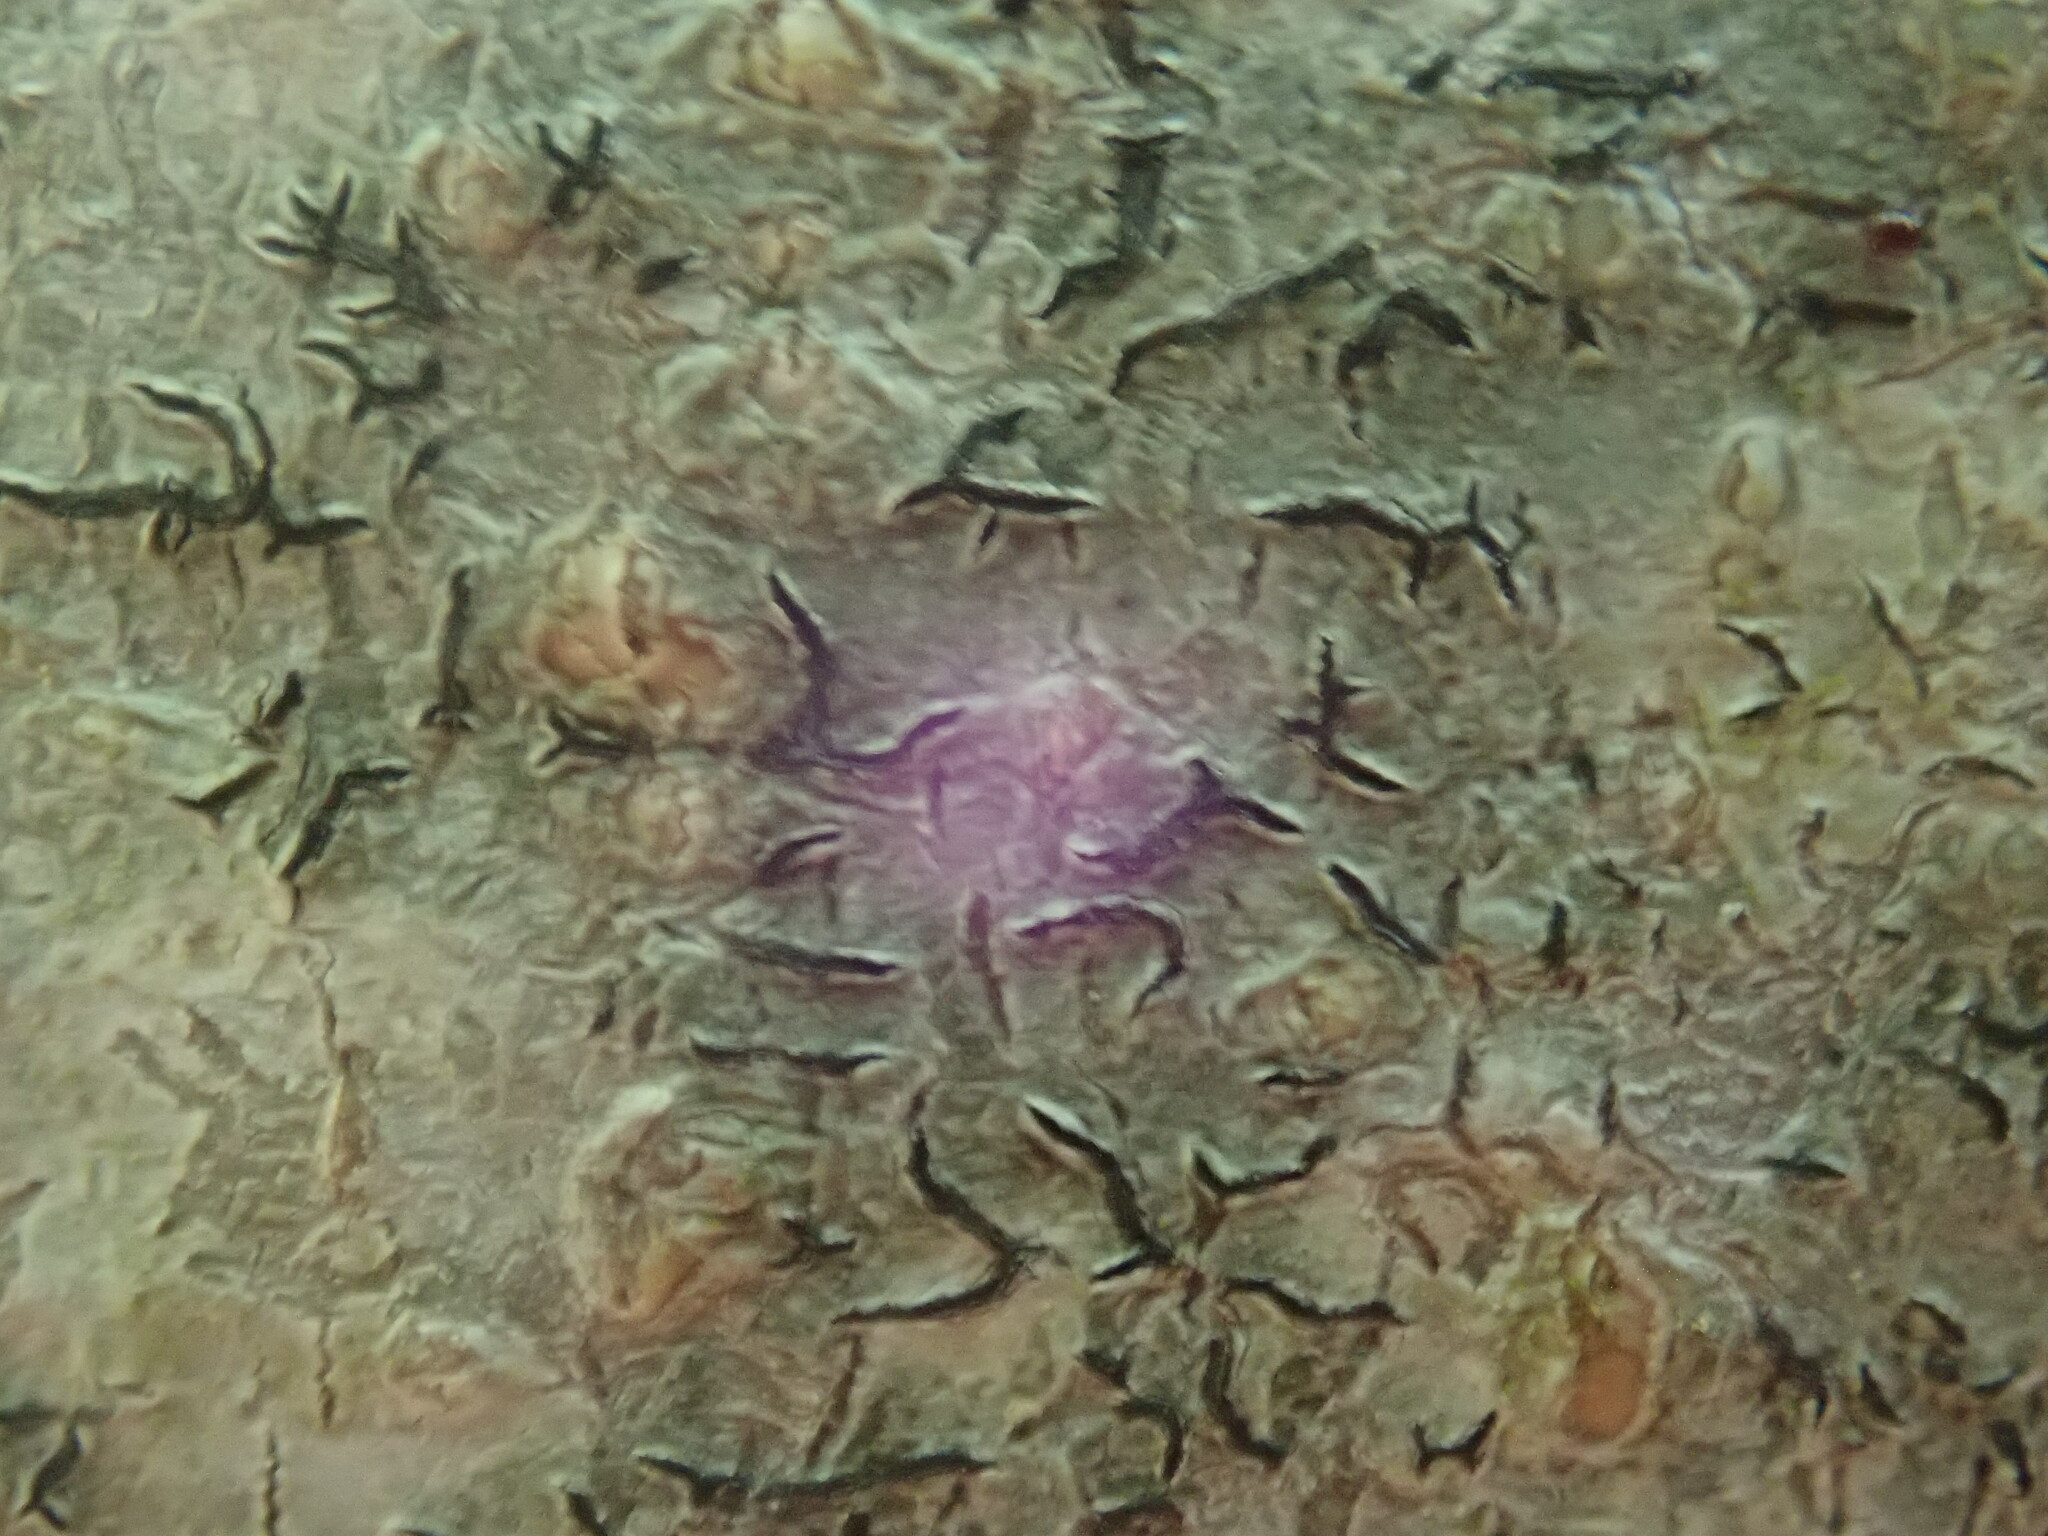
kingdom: Fungi
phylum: Ascomycota
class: Lecanoromycetes
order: Ostropales
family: Graphidaceae
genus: Graphis
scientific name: Graphis scripta
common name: Script lichen
